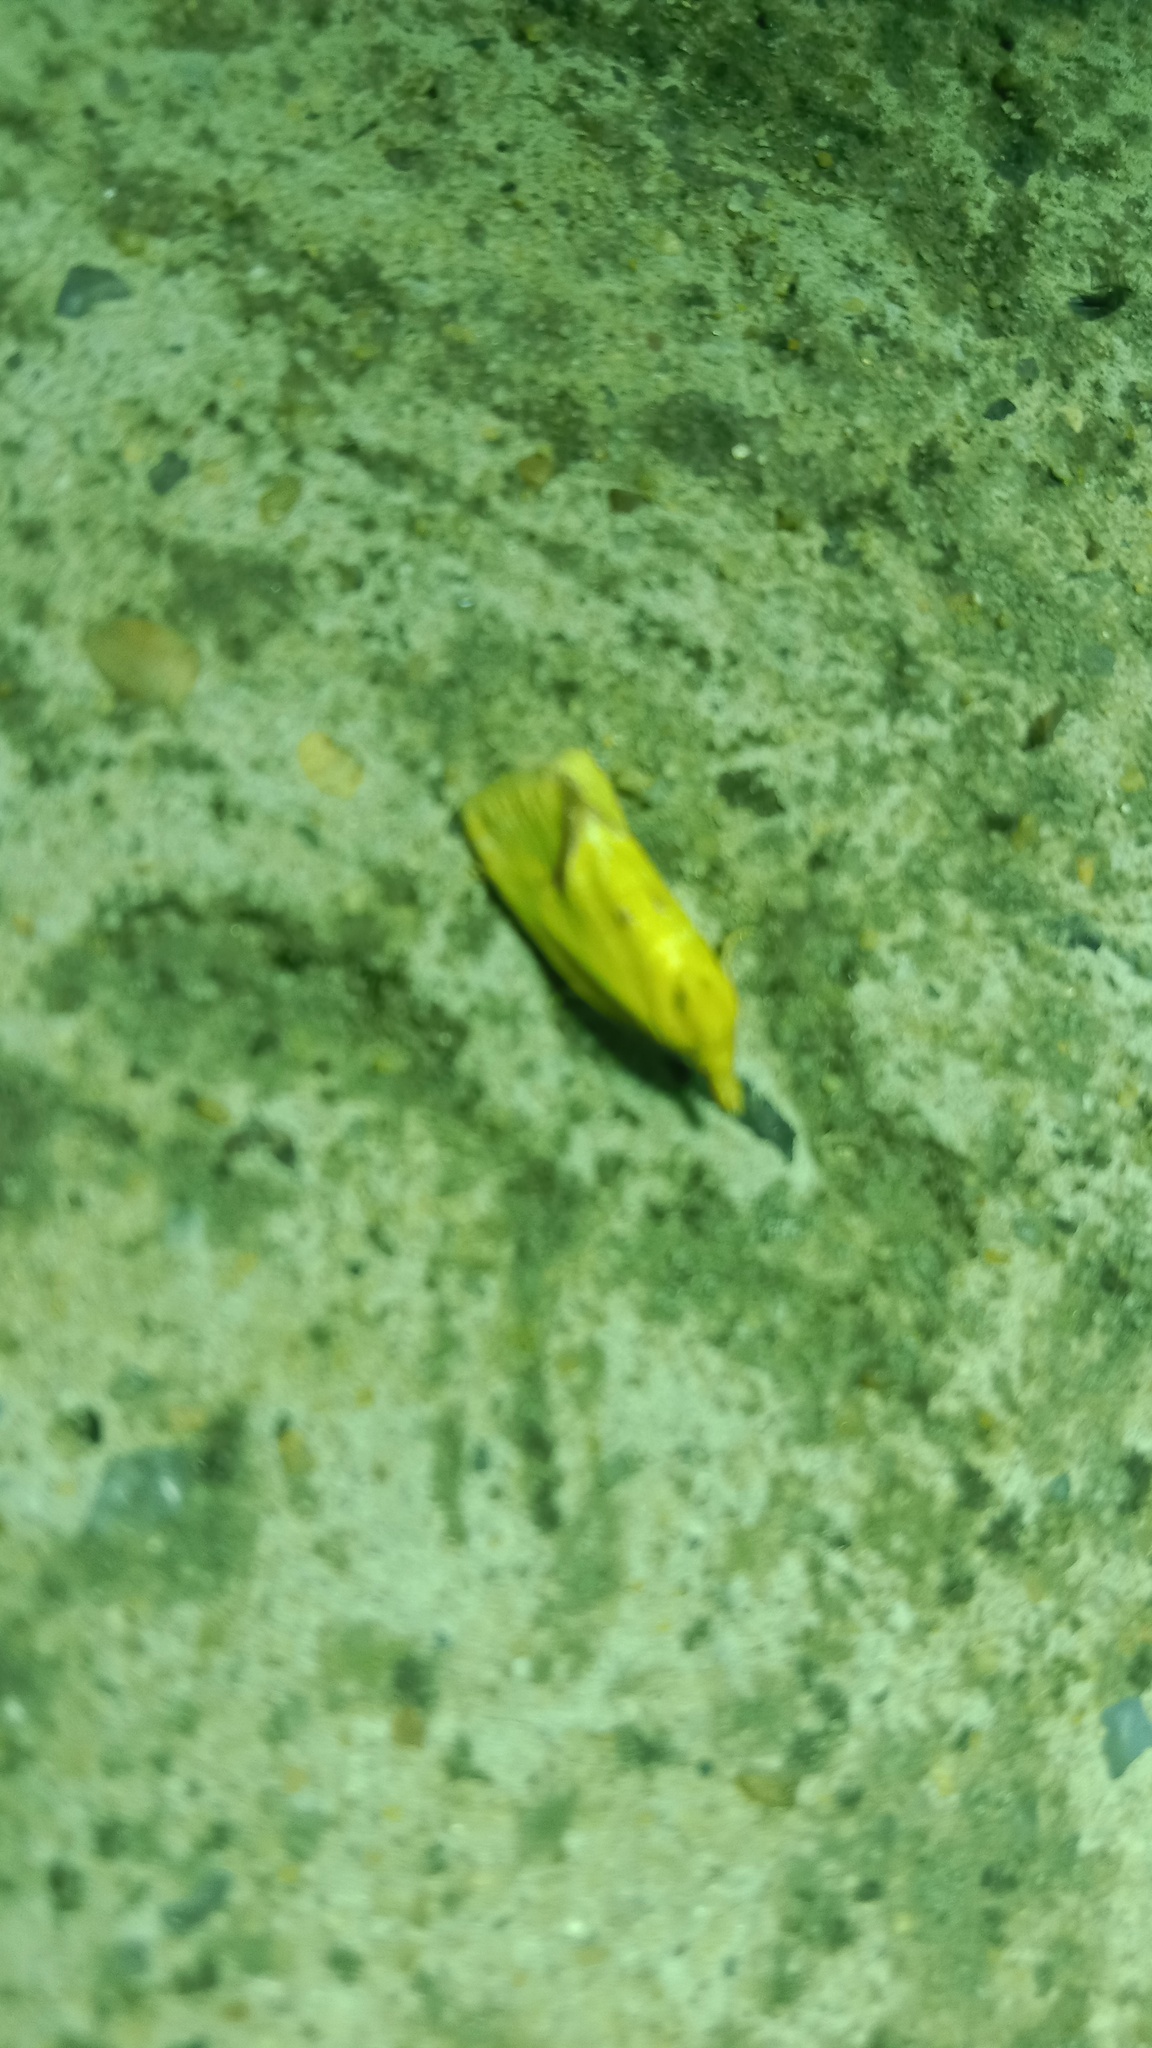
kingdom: Animalia
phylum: Arthropoda
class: Insecta
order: Lepidoptera
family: Tortricidae
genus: Agapeta
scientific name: Agapeta hamana
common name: Common yellow conch
